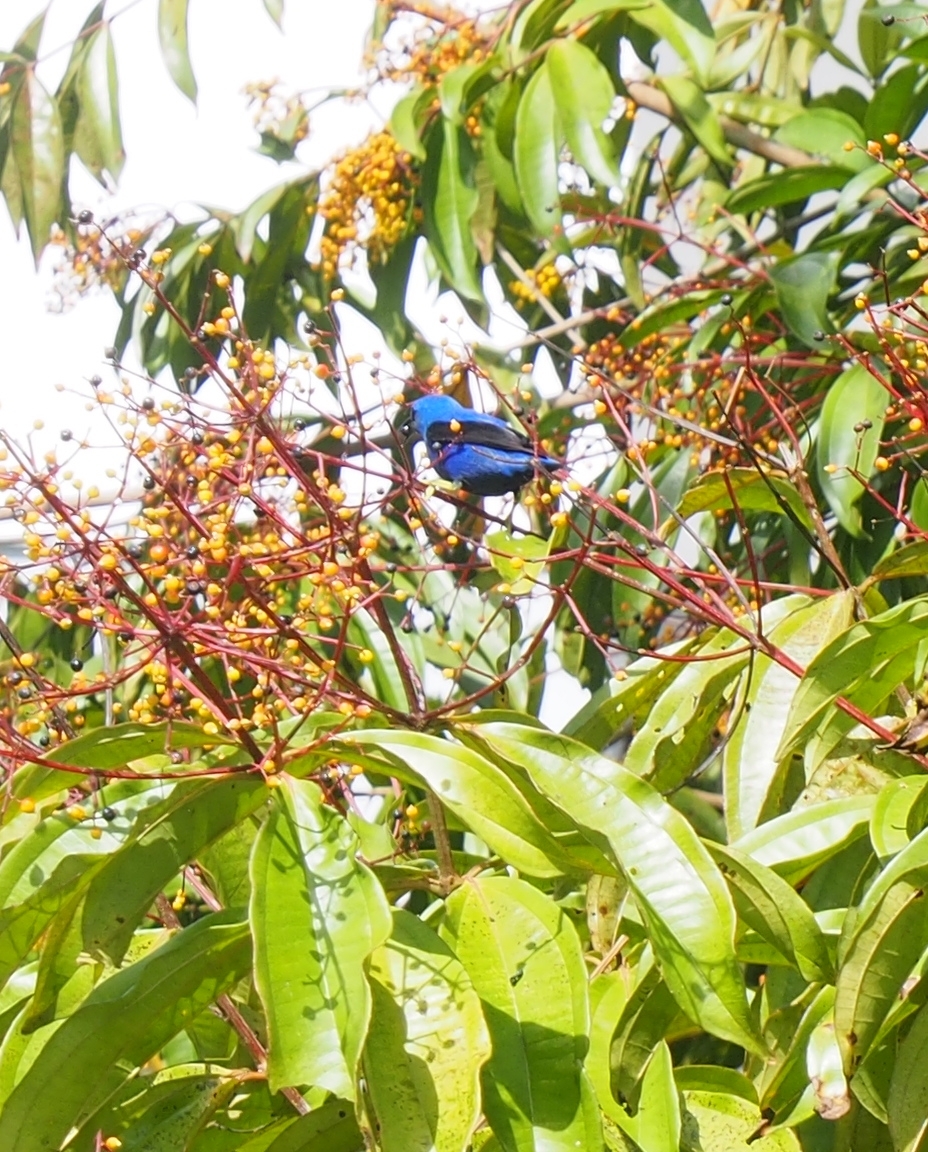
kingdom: Animalia
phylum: Chordata
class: Aves
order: Passeriformes
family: Thraupidae
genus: Cyanerpes
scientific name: Cyanerpes lucidus
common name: Shining honeycreeper
